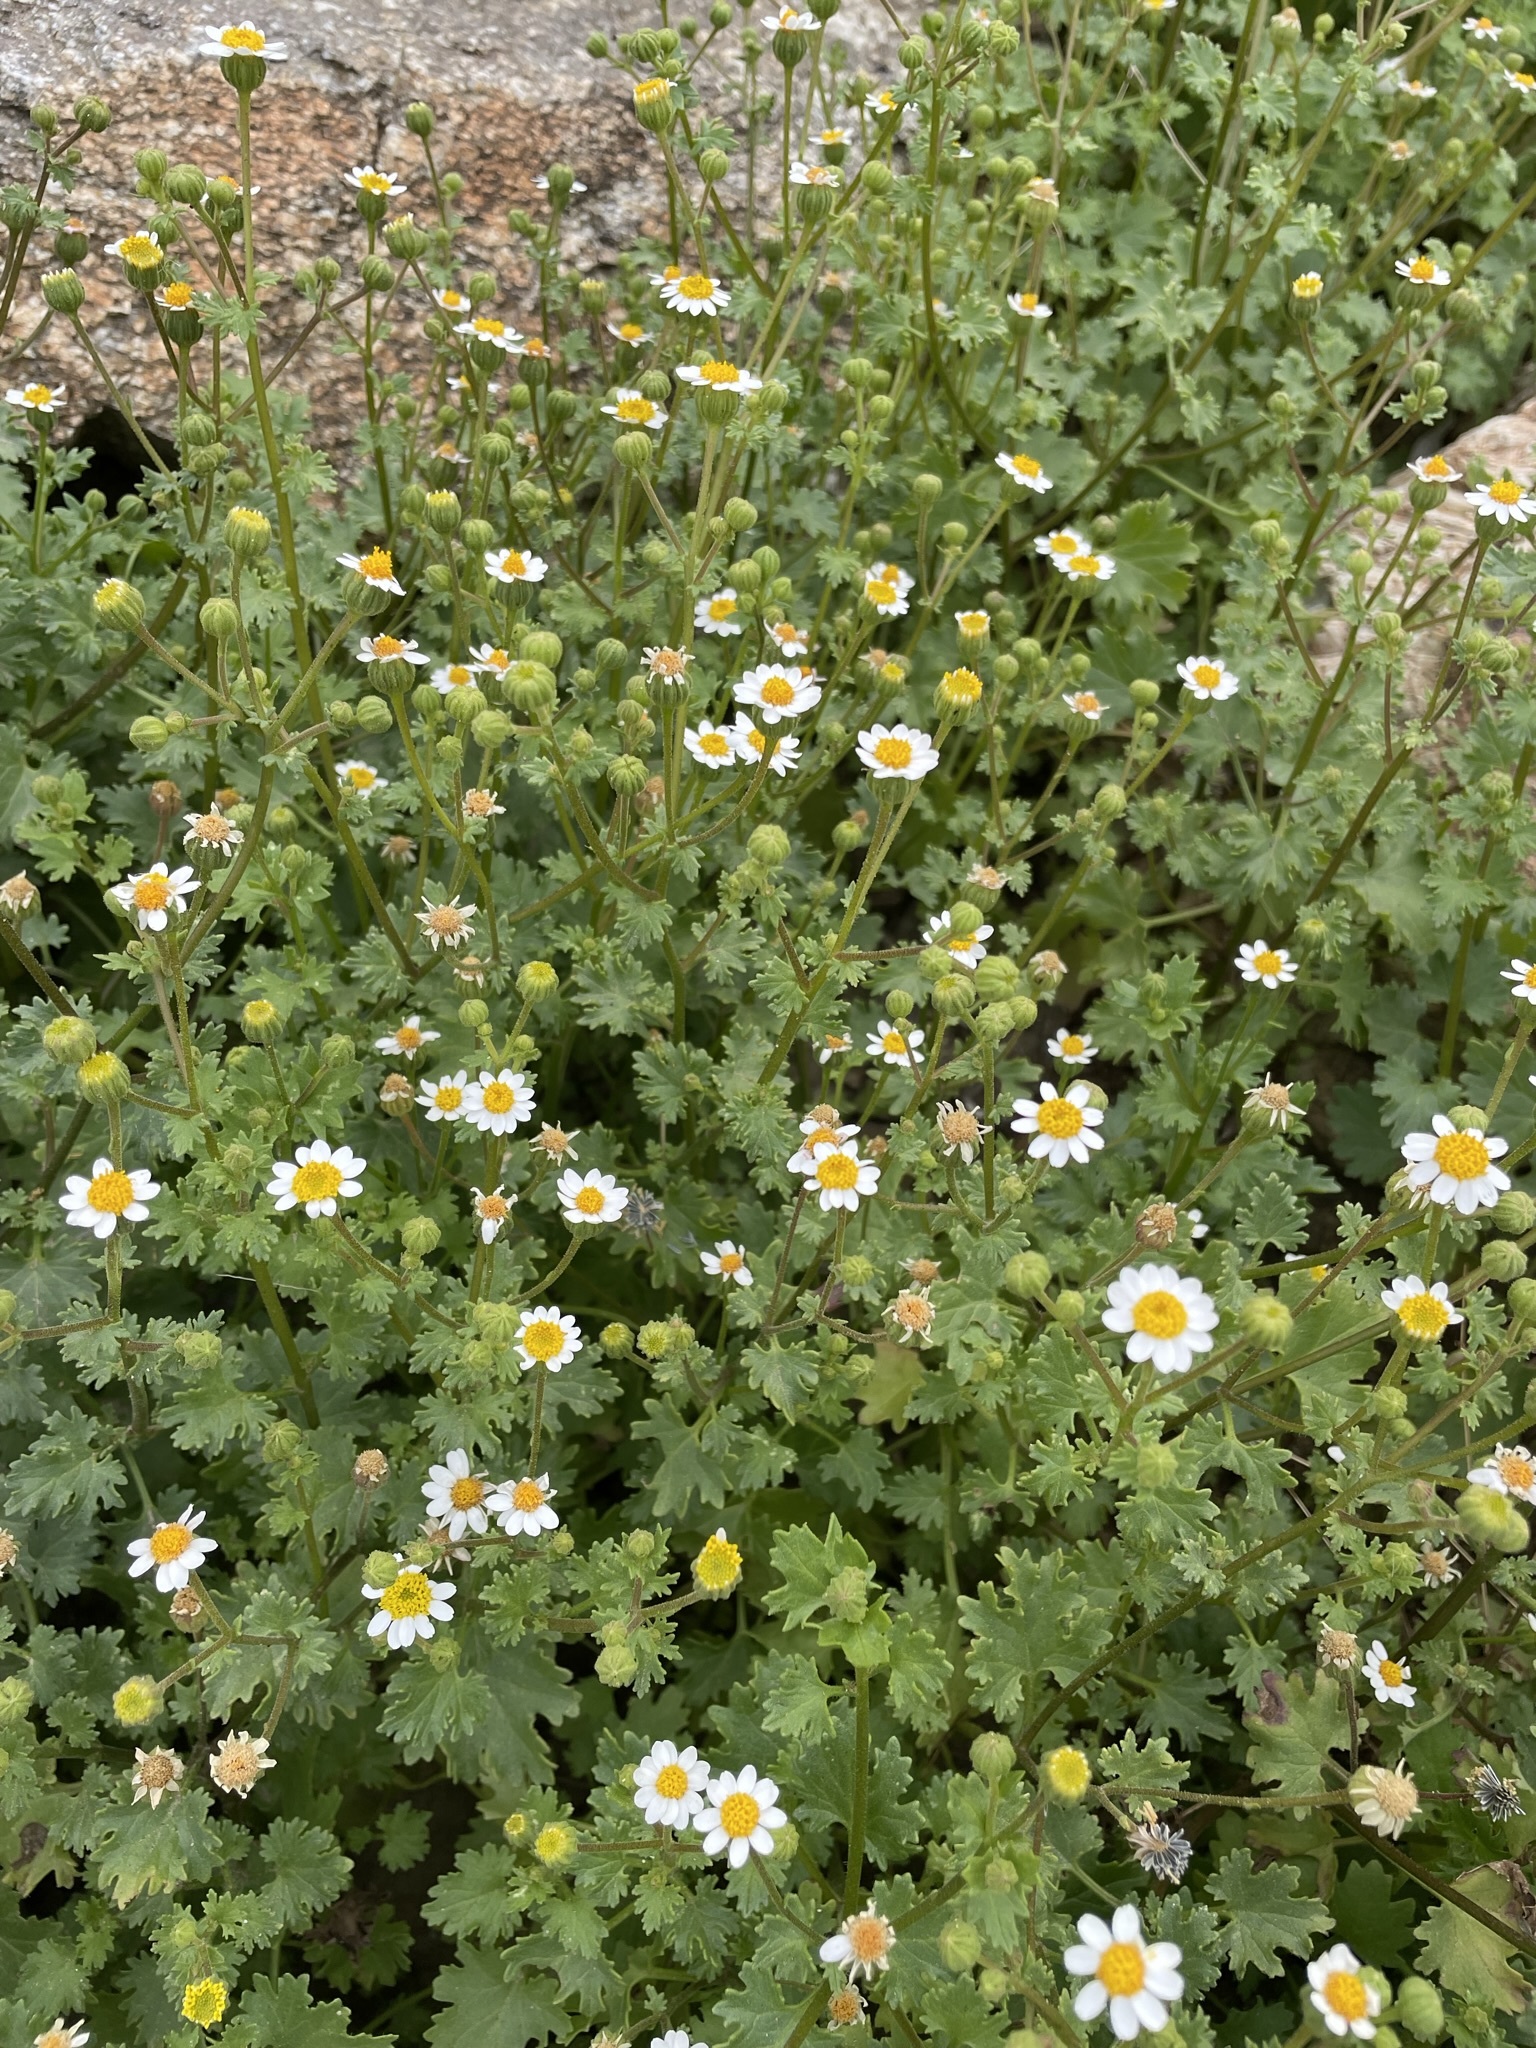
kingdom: Plantae
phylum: Tracheophyta
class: Magnoliopsida
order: Asterales
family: Asteraceae
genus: Laphamia
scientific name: Laphamia emoryi
